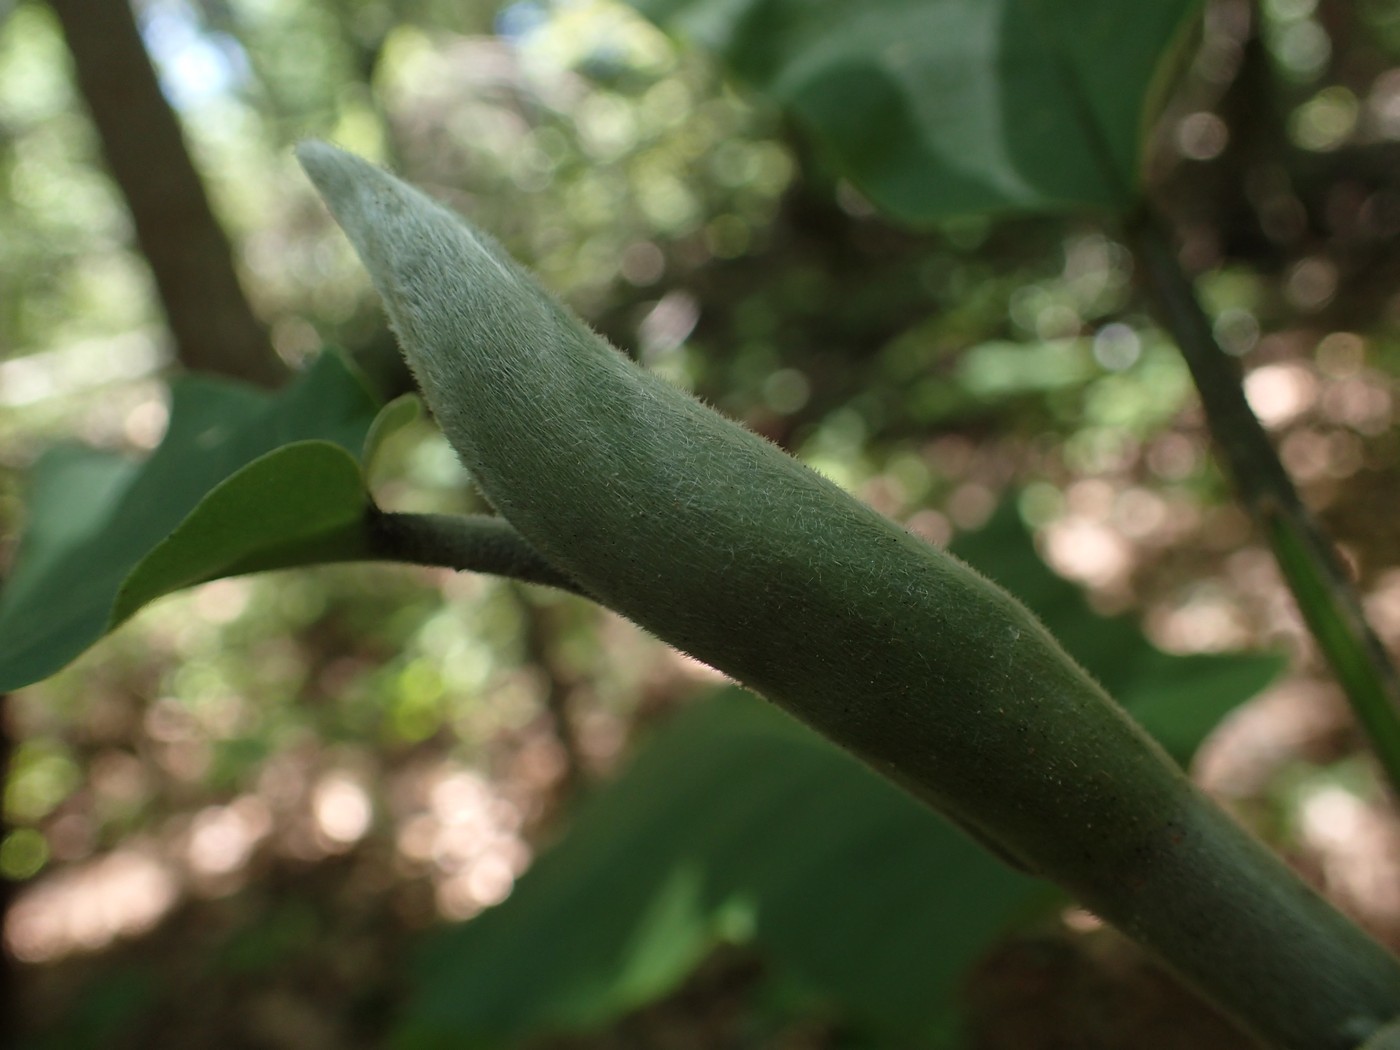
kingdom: Plantae
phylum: Tracheophyta
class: Magnoliopsida
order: Magnoliales
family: Magnoliaceae
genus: Magnolia
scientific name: Magnolia macrophylla
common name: Big-leaf magnolia
